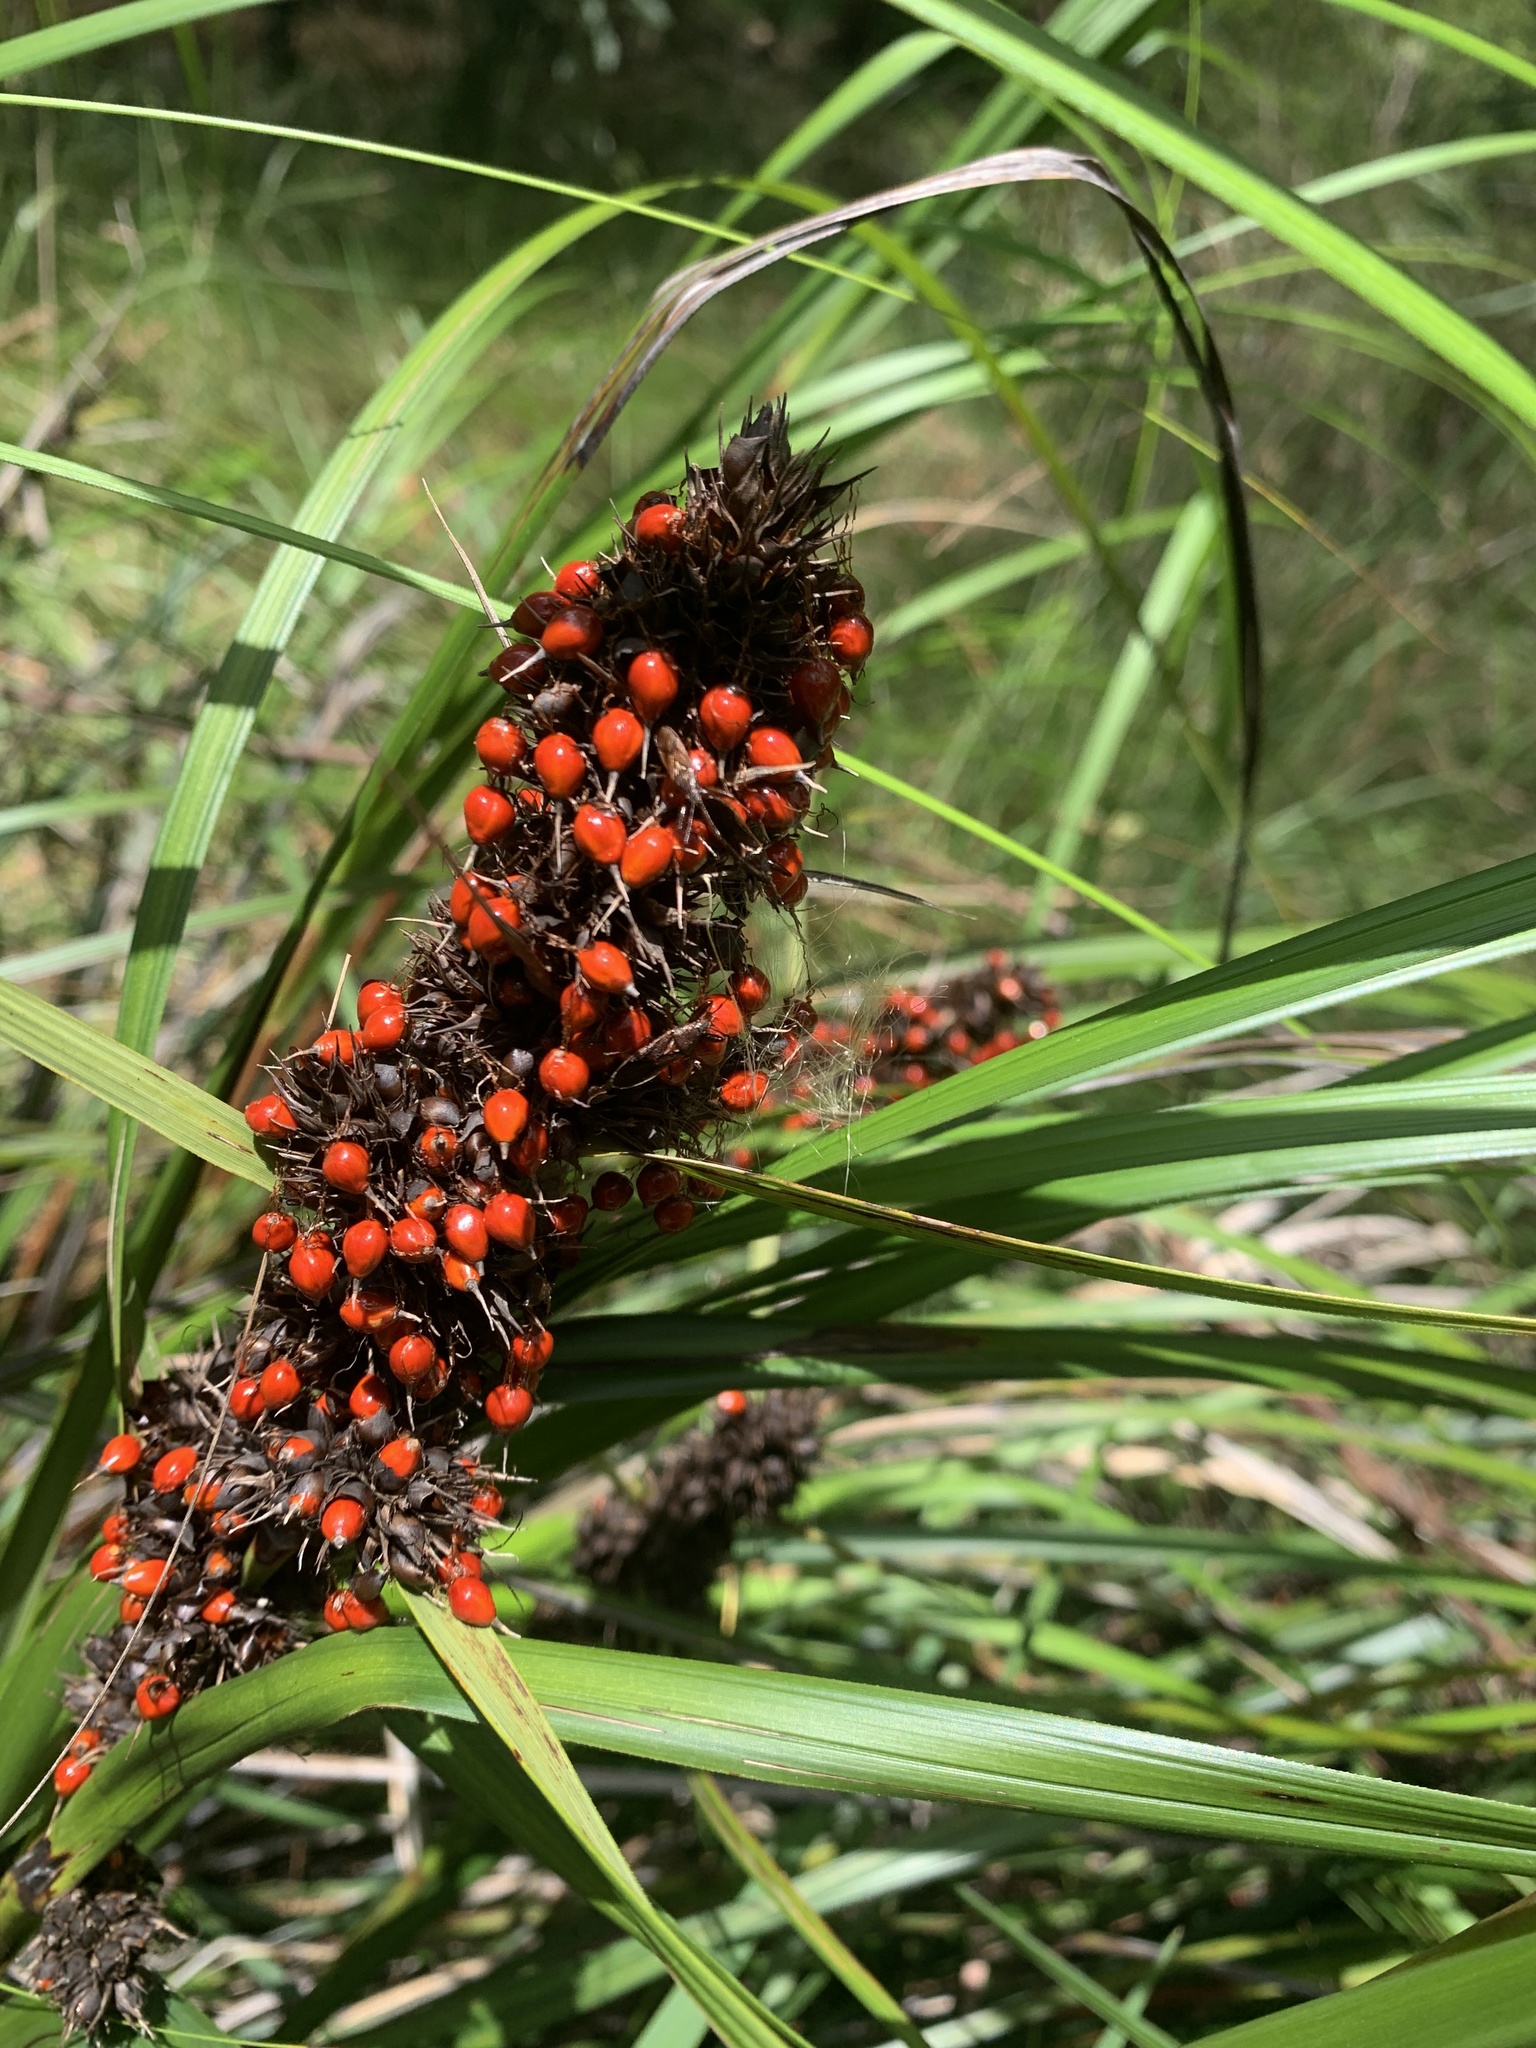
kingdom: Plantae
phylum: Tracheophyta
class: Liliopsida
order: Poales
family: Cyperaceae
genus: Gahnia
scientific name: Gahnia aspera
